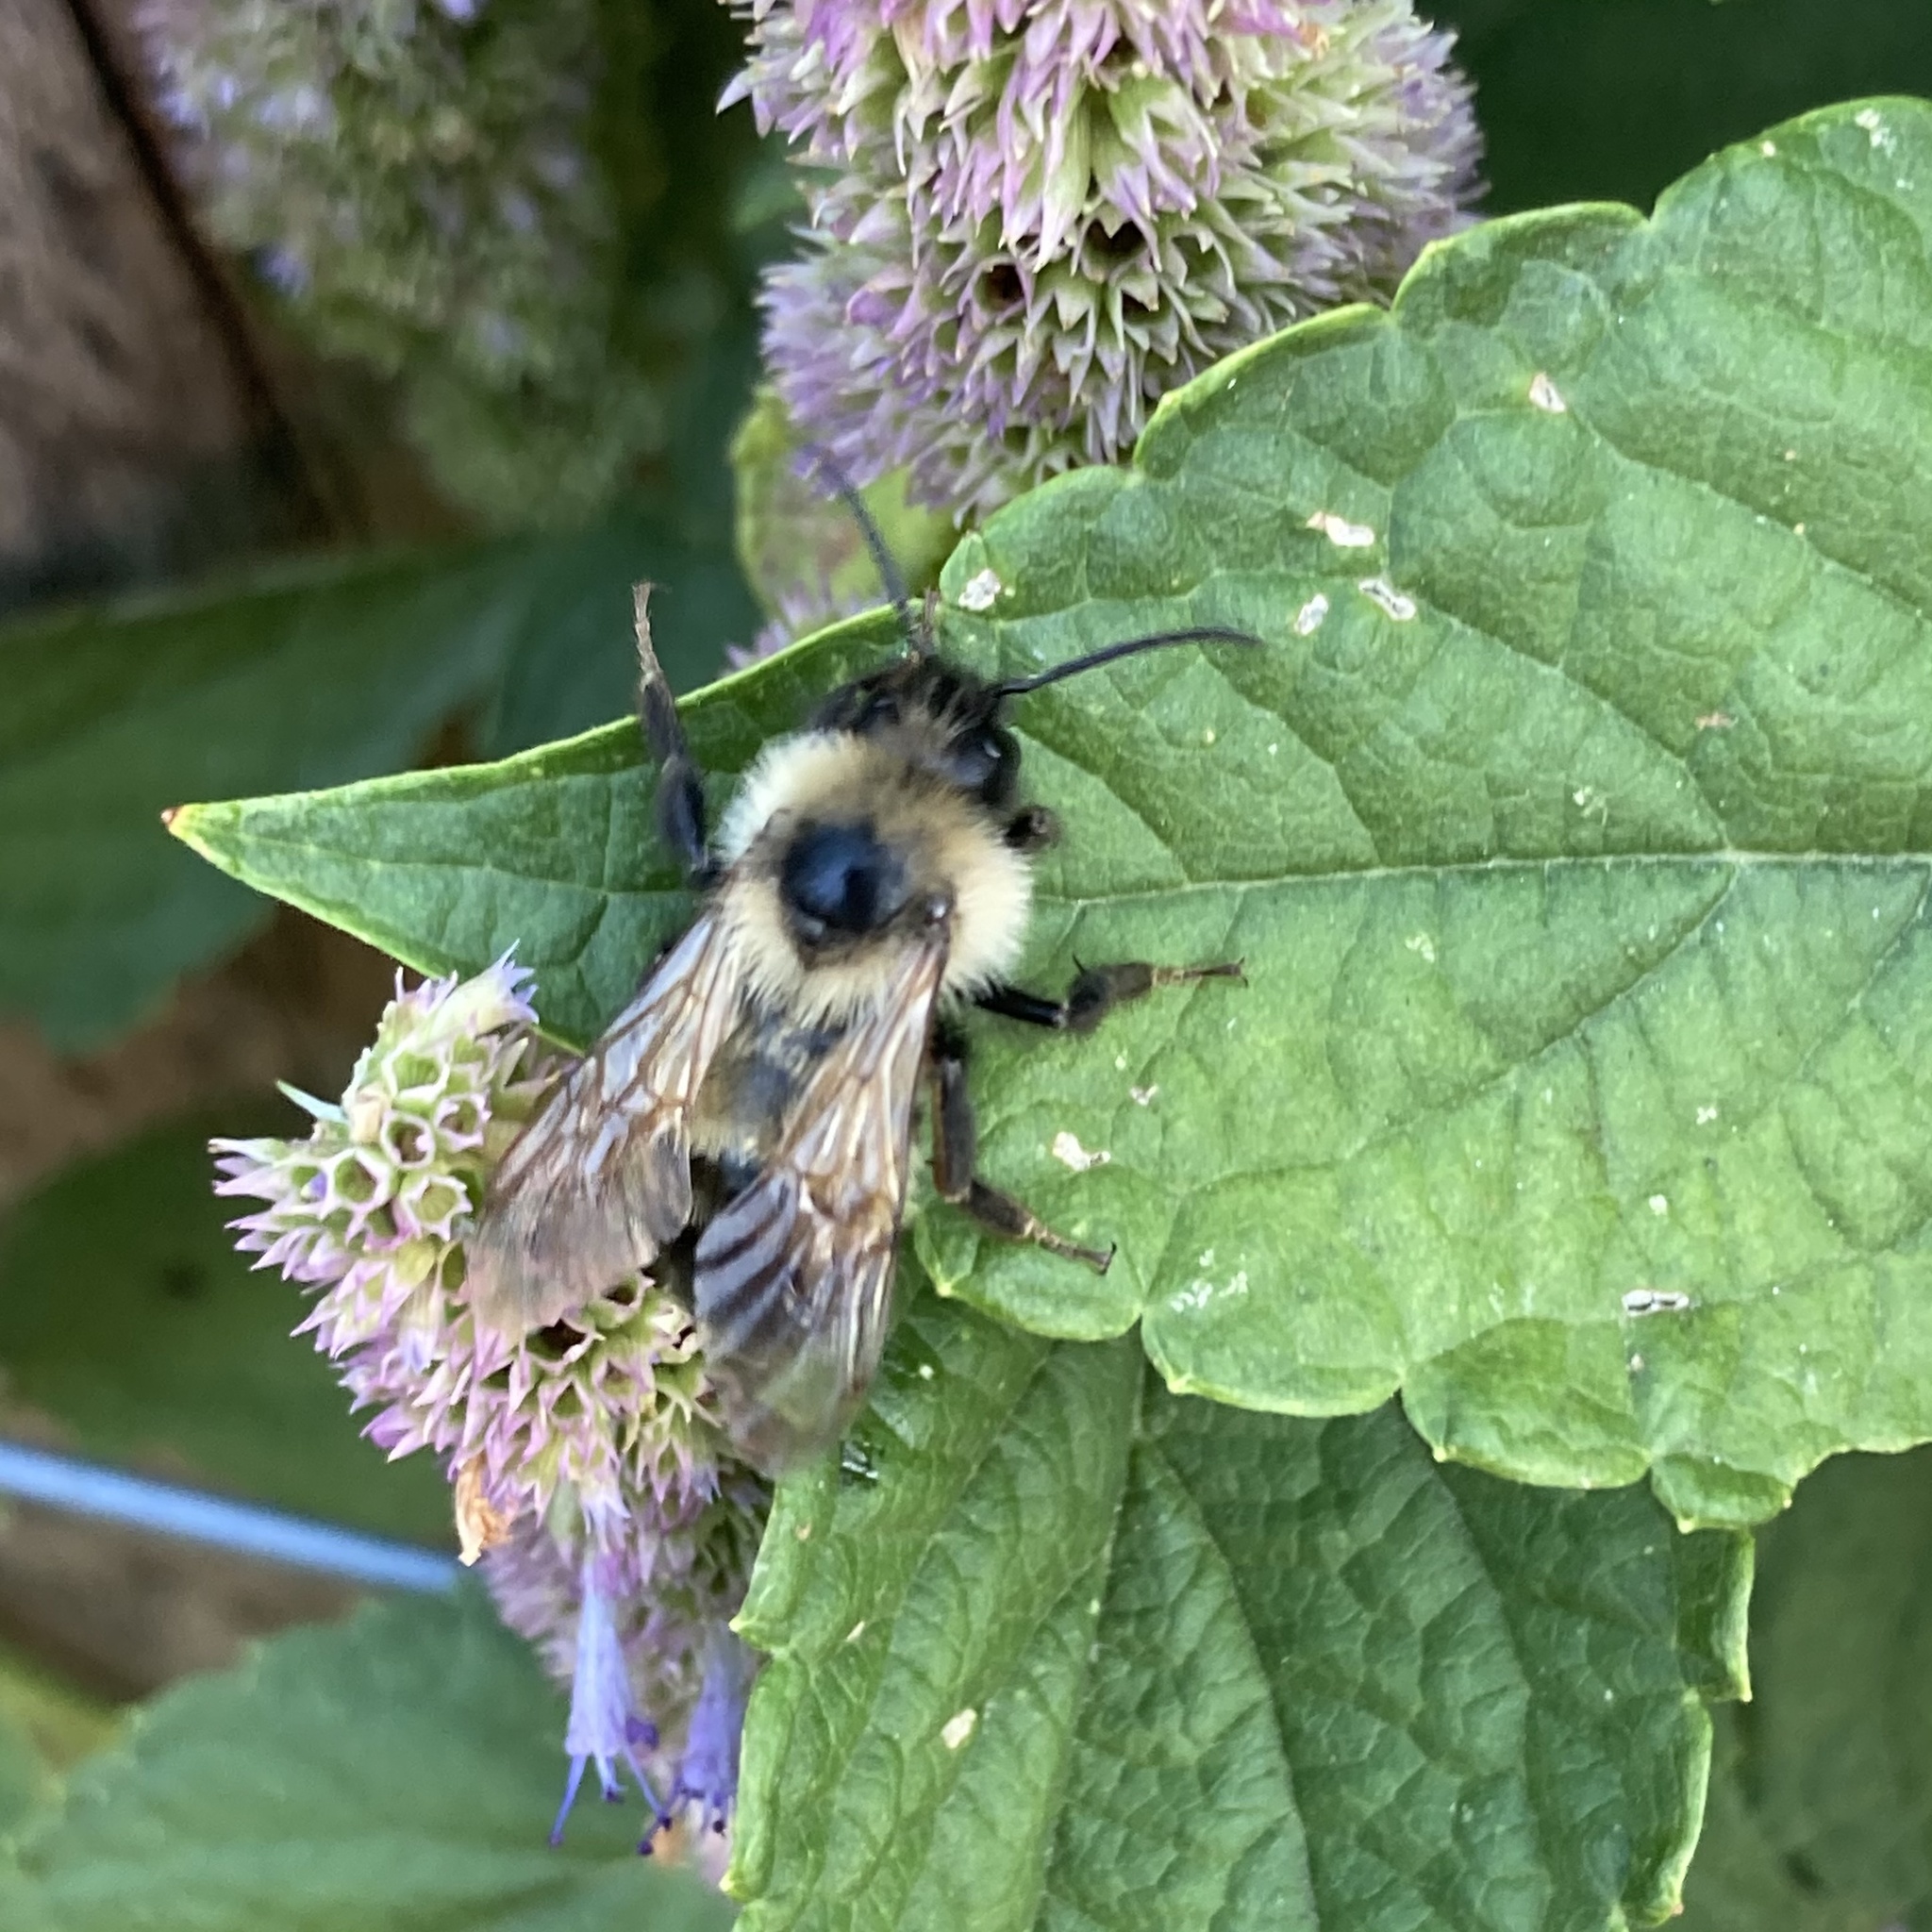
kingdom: Animalia
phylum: Arthropoda
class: Insecta
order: Hymenoptera
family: Apidae
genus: Bombus
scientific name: Bombus citrinus
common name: Lemon cuckoo bumble bee
